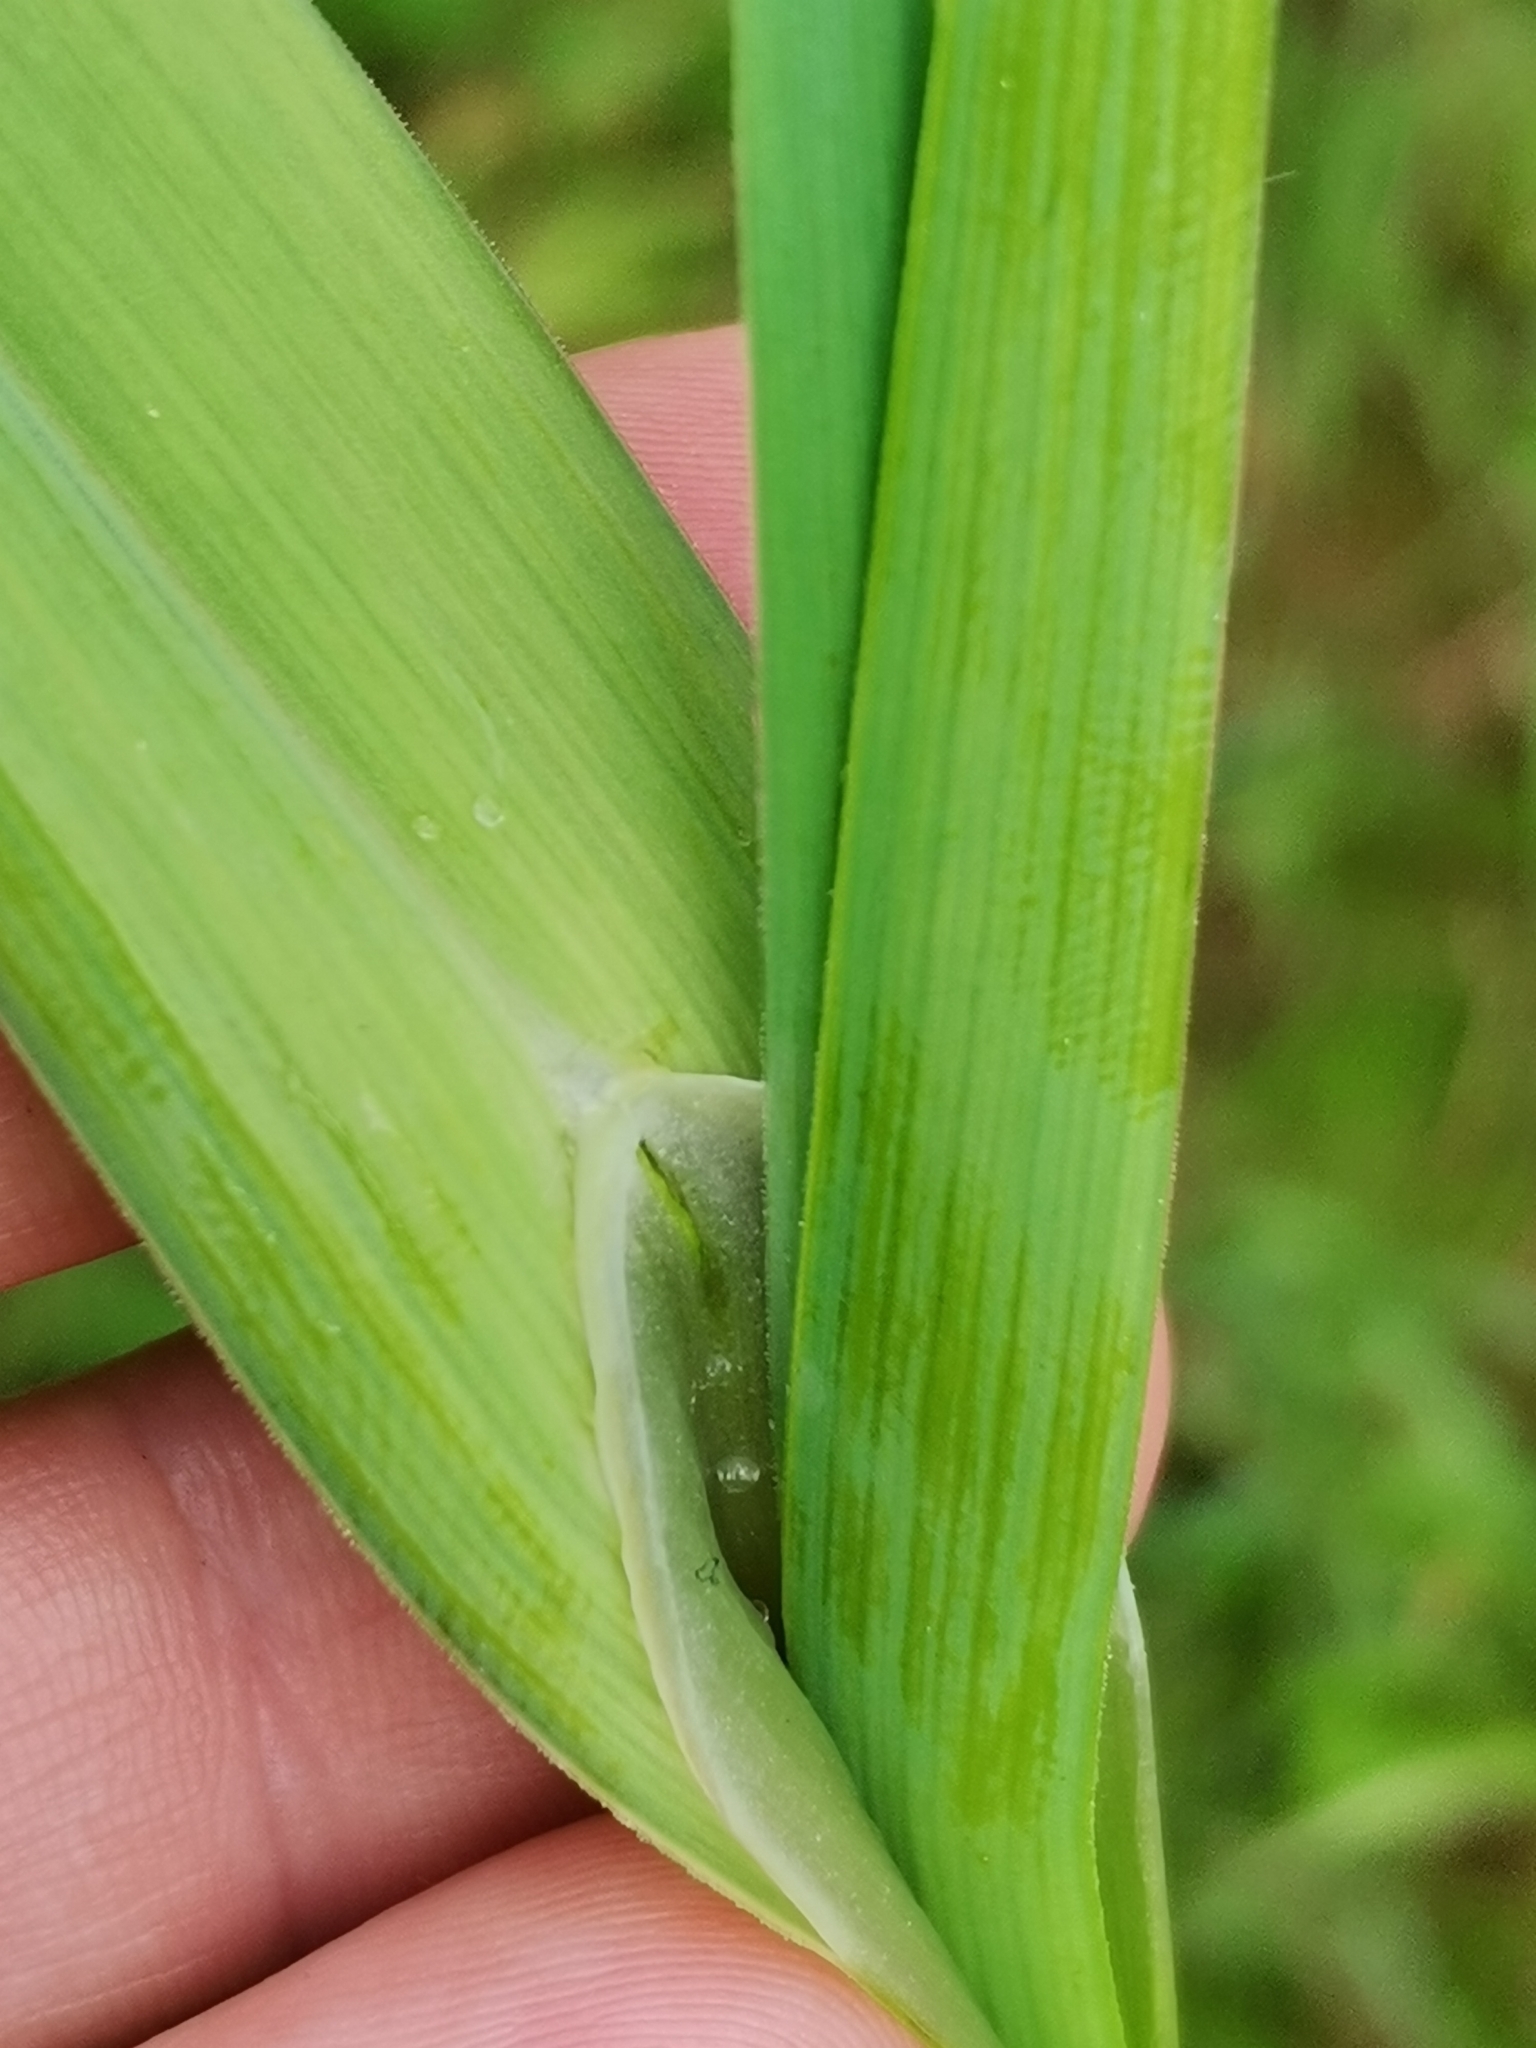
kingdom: Plantae
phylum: Tracheophyta
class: Liliopsida
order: Asparagales
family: Amaryllidaceae
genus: Allium
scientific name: Allium scorodoprasum
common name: Sand leek
